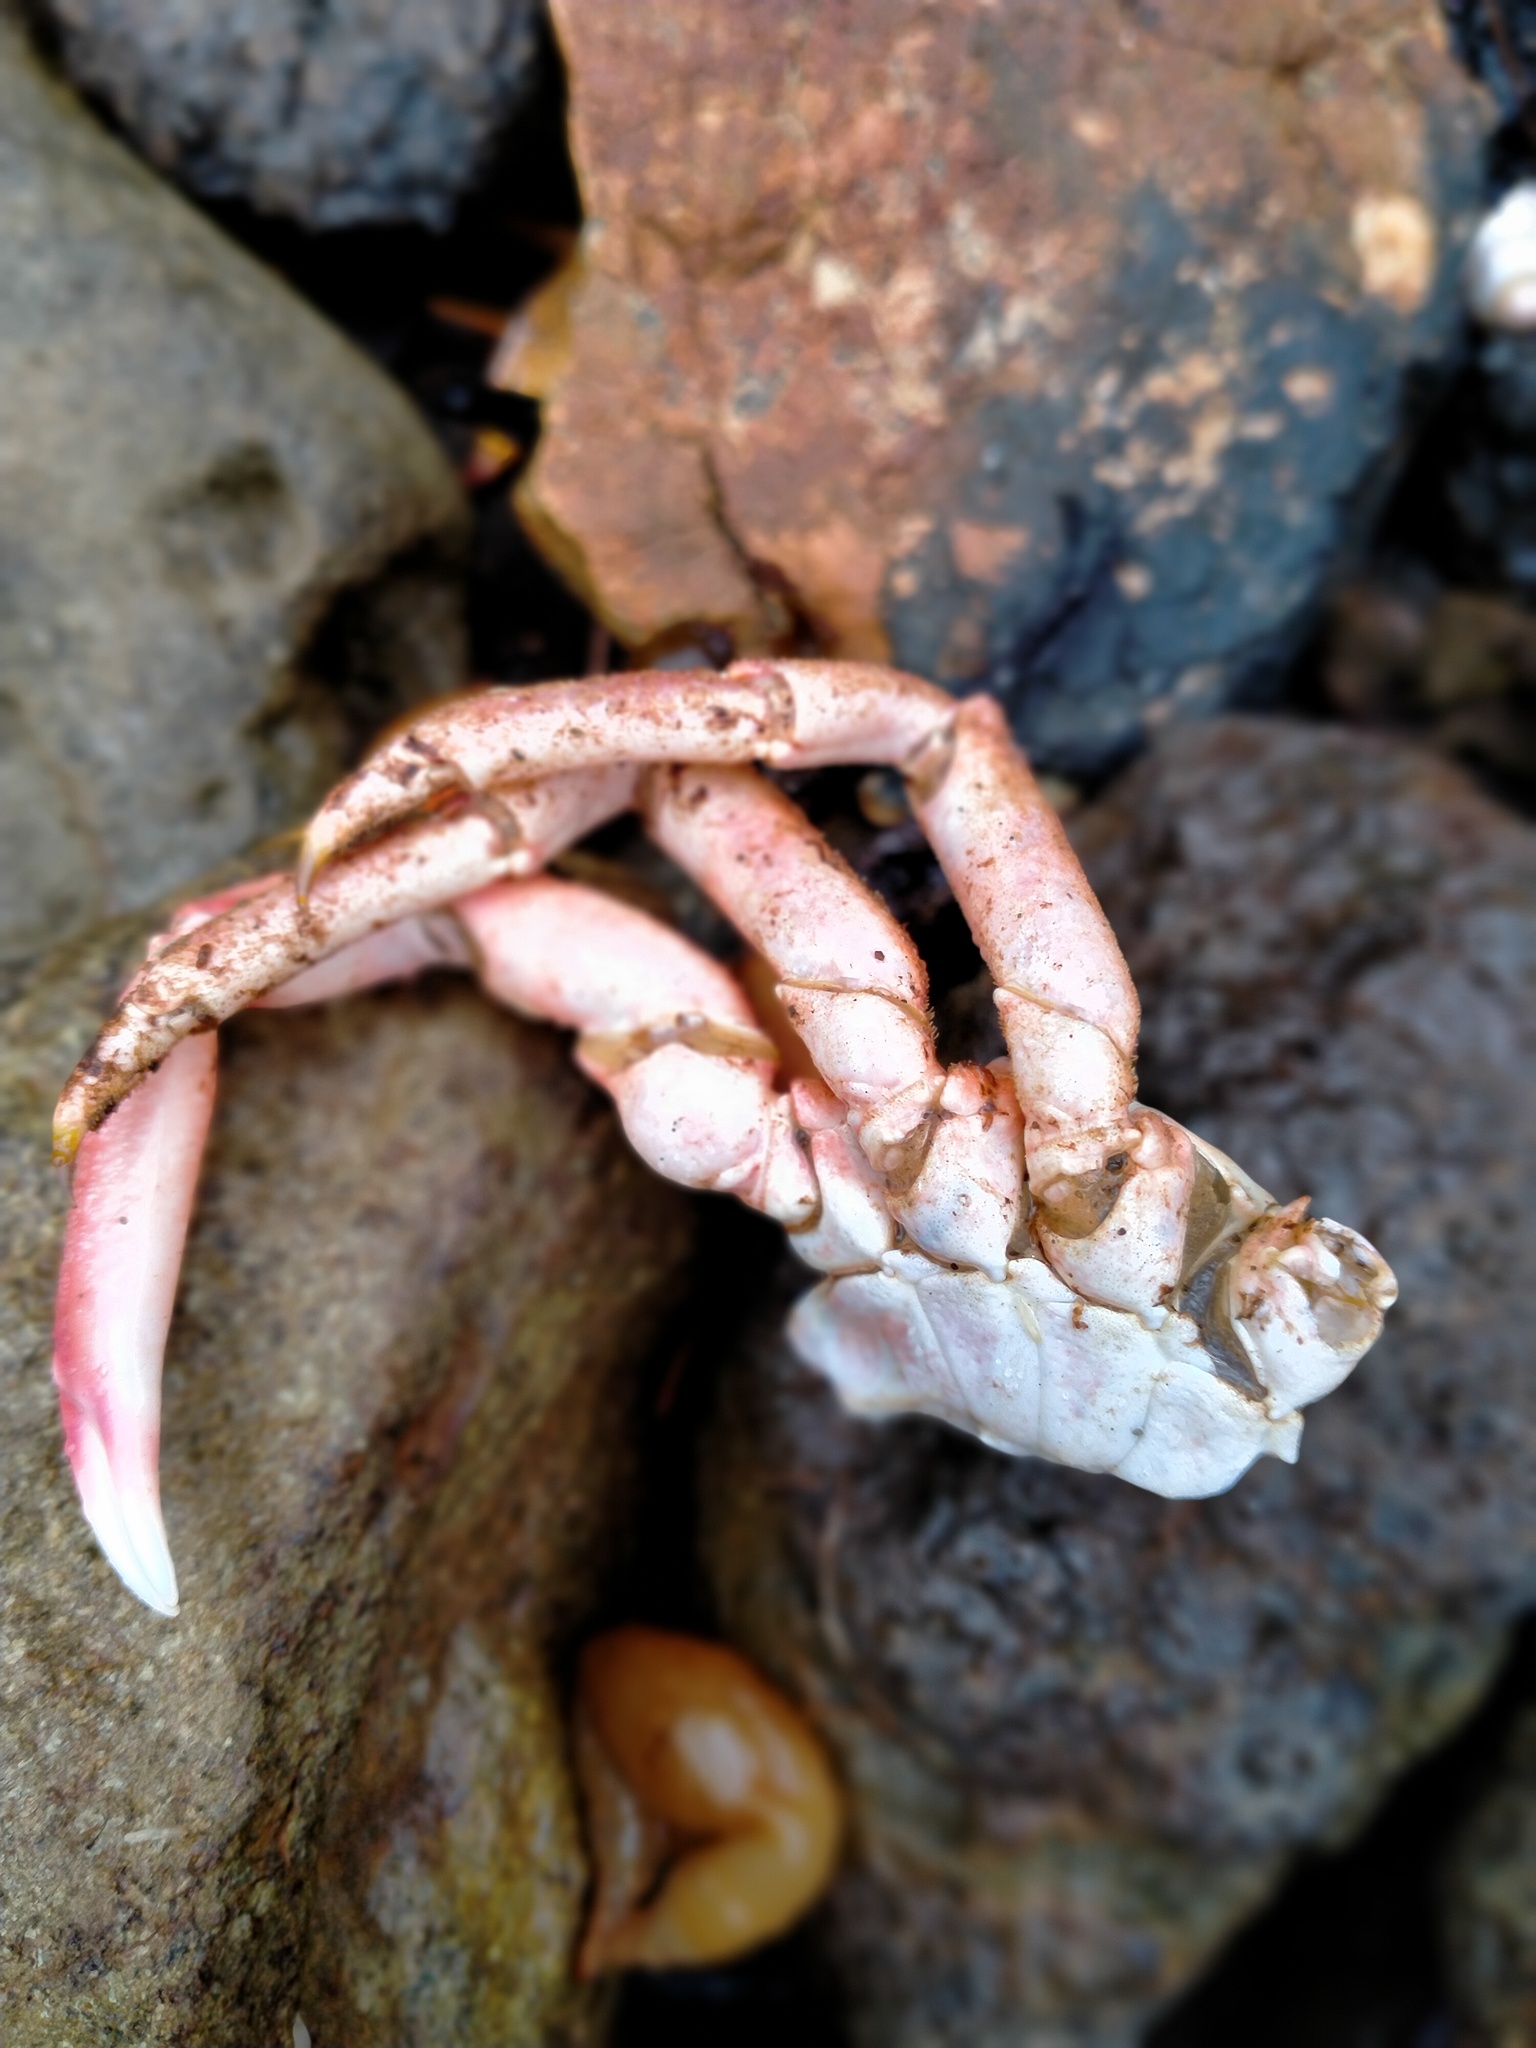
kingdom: Animalia
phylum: Arthropoda
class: Malacostraca
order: Decapoda
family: Majidae
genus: Leptomithrax
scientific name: Leptomithrax australis
